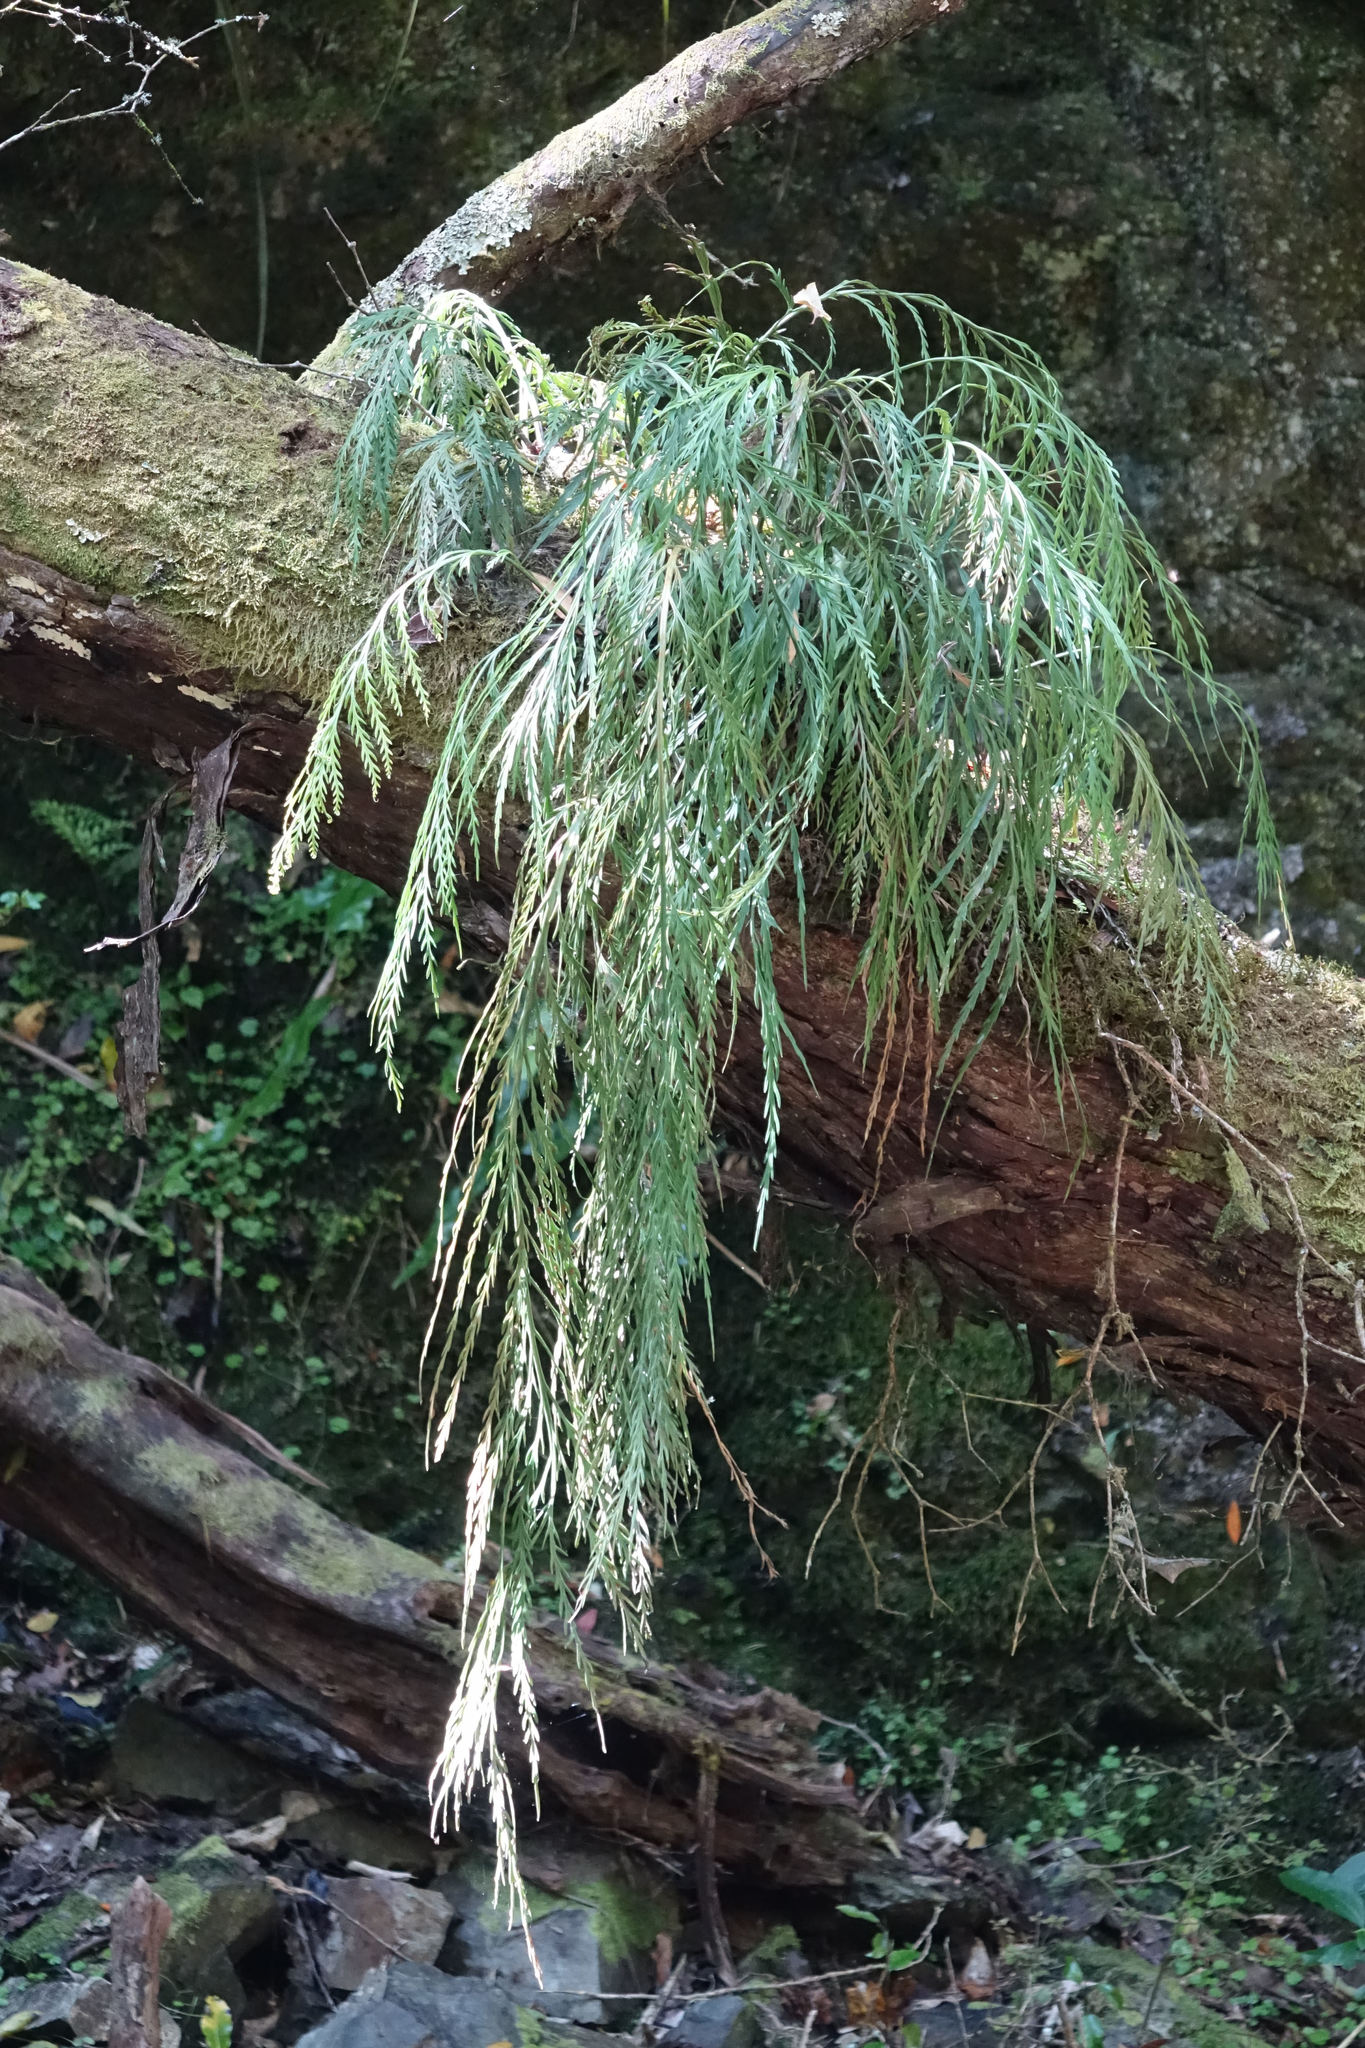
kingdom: Plantae
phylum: Tracheophyta
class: Polypodiopsida
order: Polypodiales
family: Aspleniaceae
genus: Asplenium
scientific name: Asplenium flaccidum
